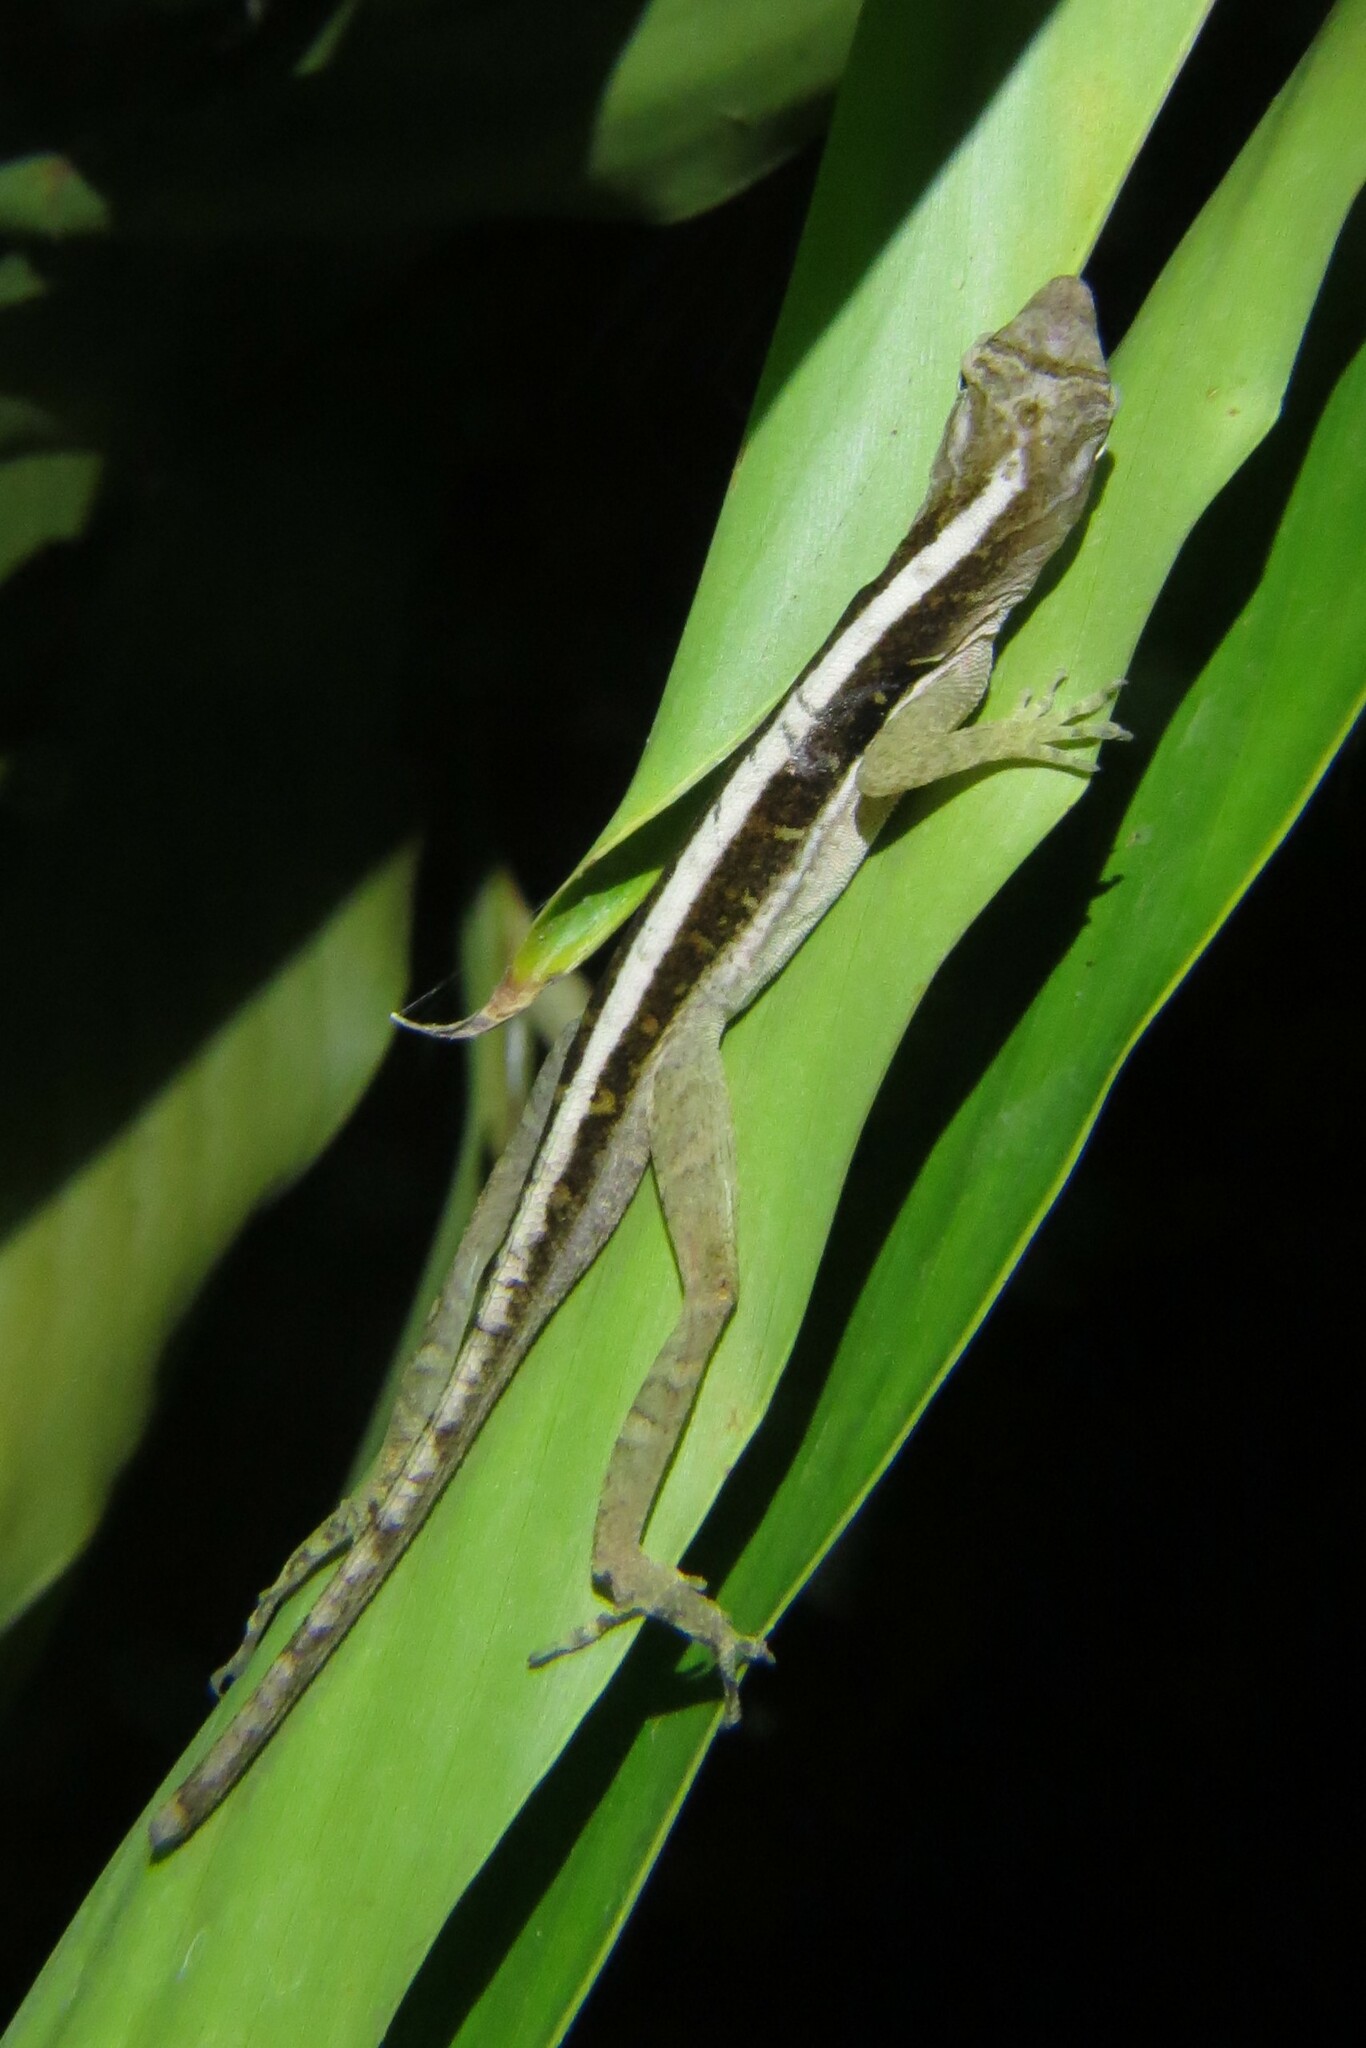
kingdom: Animalia
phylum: Chordata
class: Squamata
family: Dactyloidae
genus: Anolis
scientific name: Anolis cupreus
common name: Copper anole
